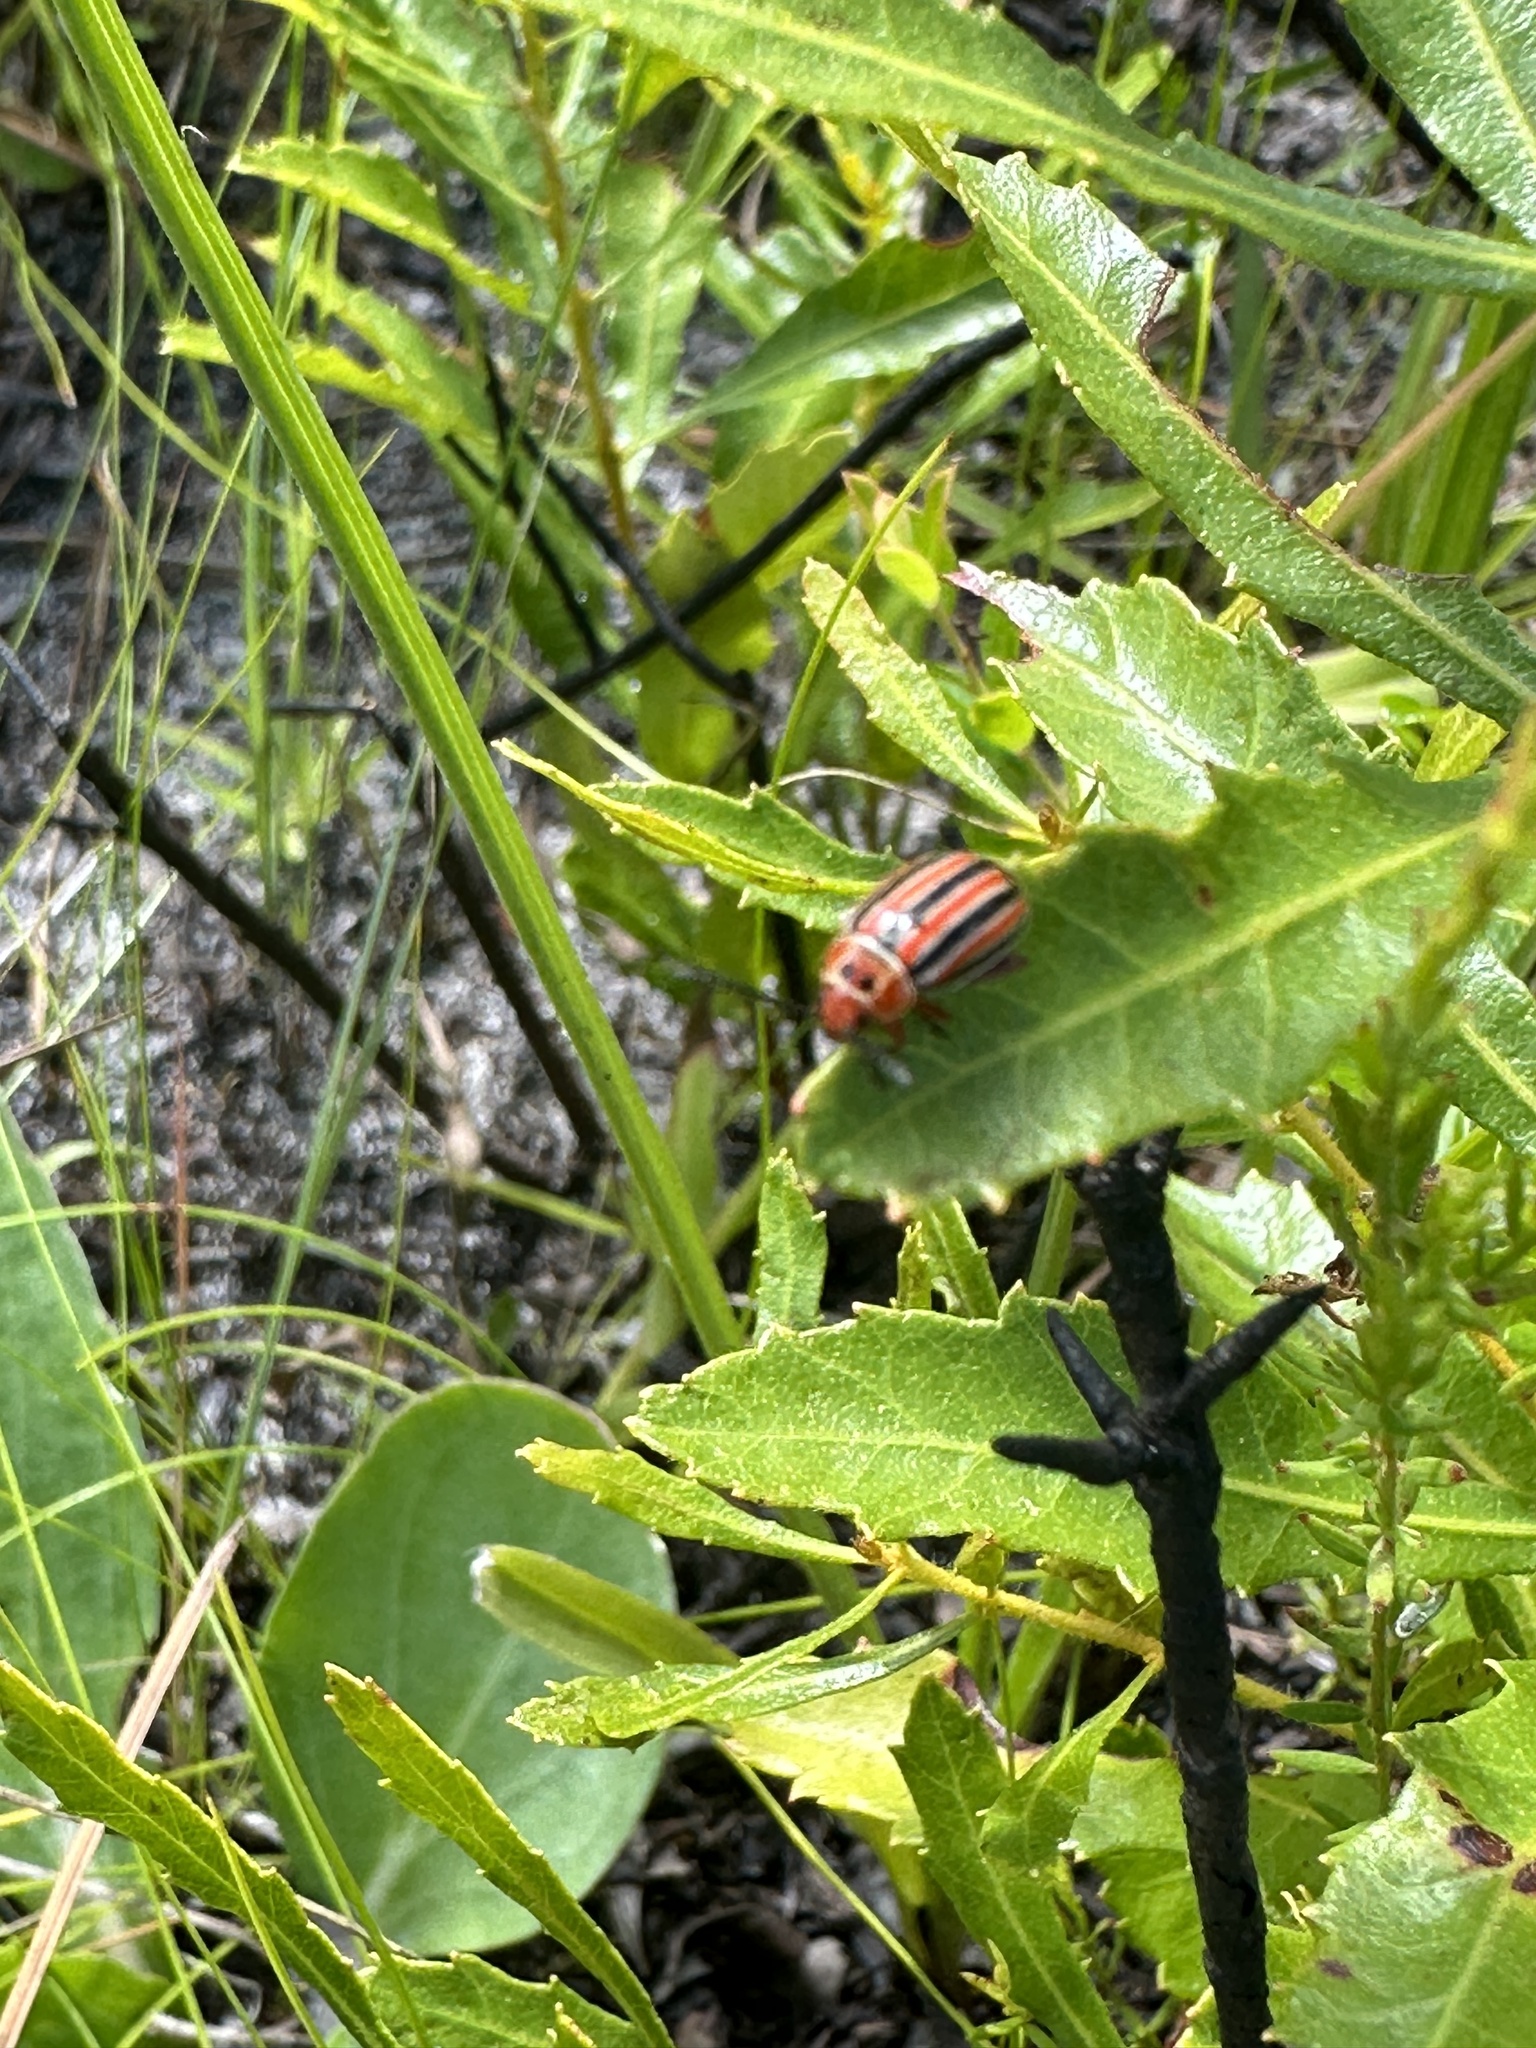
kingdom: Animalia
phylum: Arthropoda
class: Insecta
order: Coleoptera
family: Chrysomelidae
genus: Disonycha
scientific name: Disonycha admirabila
